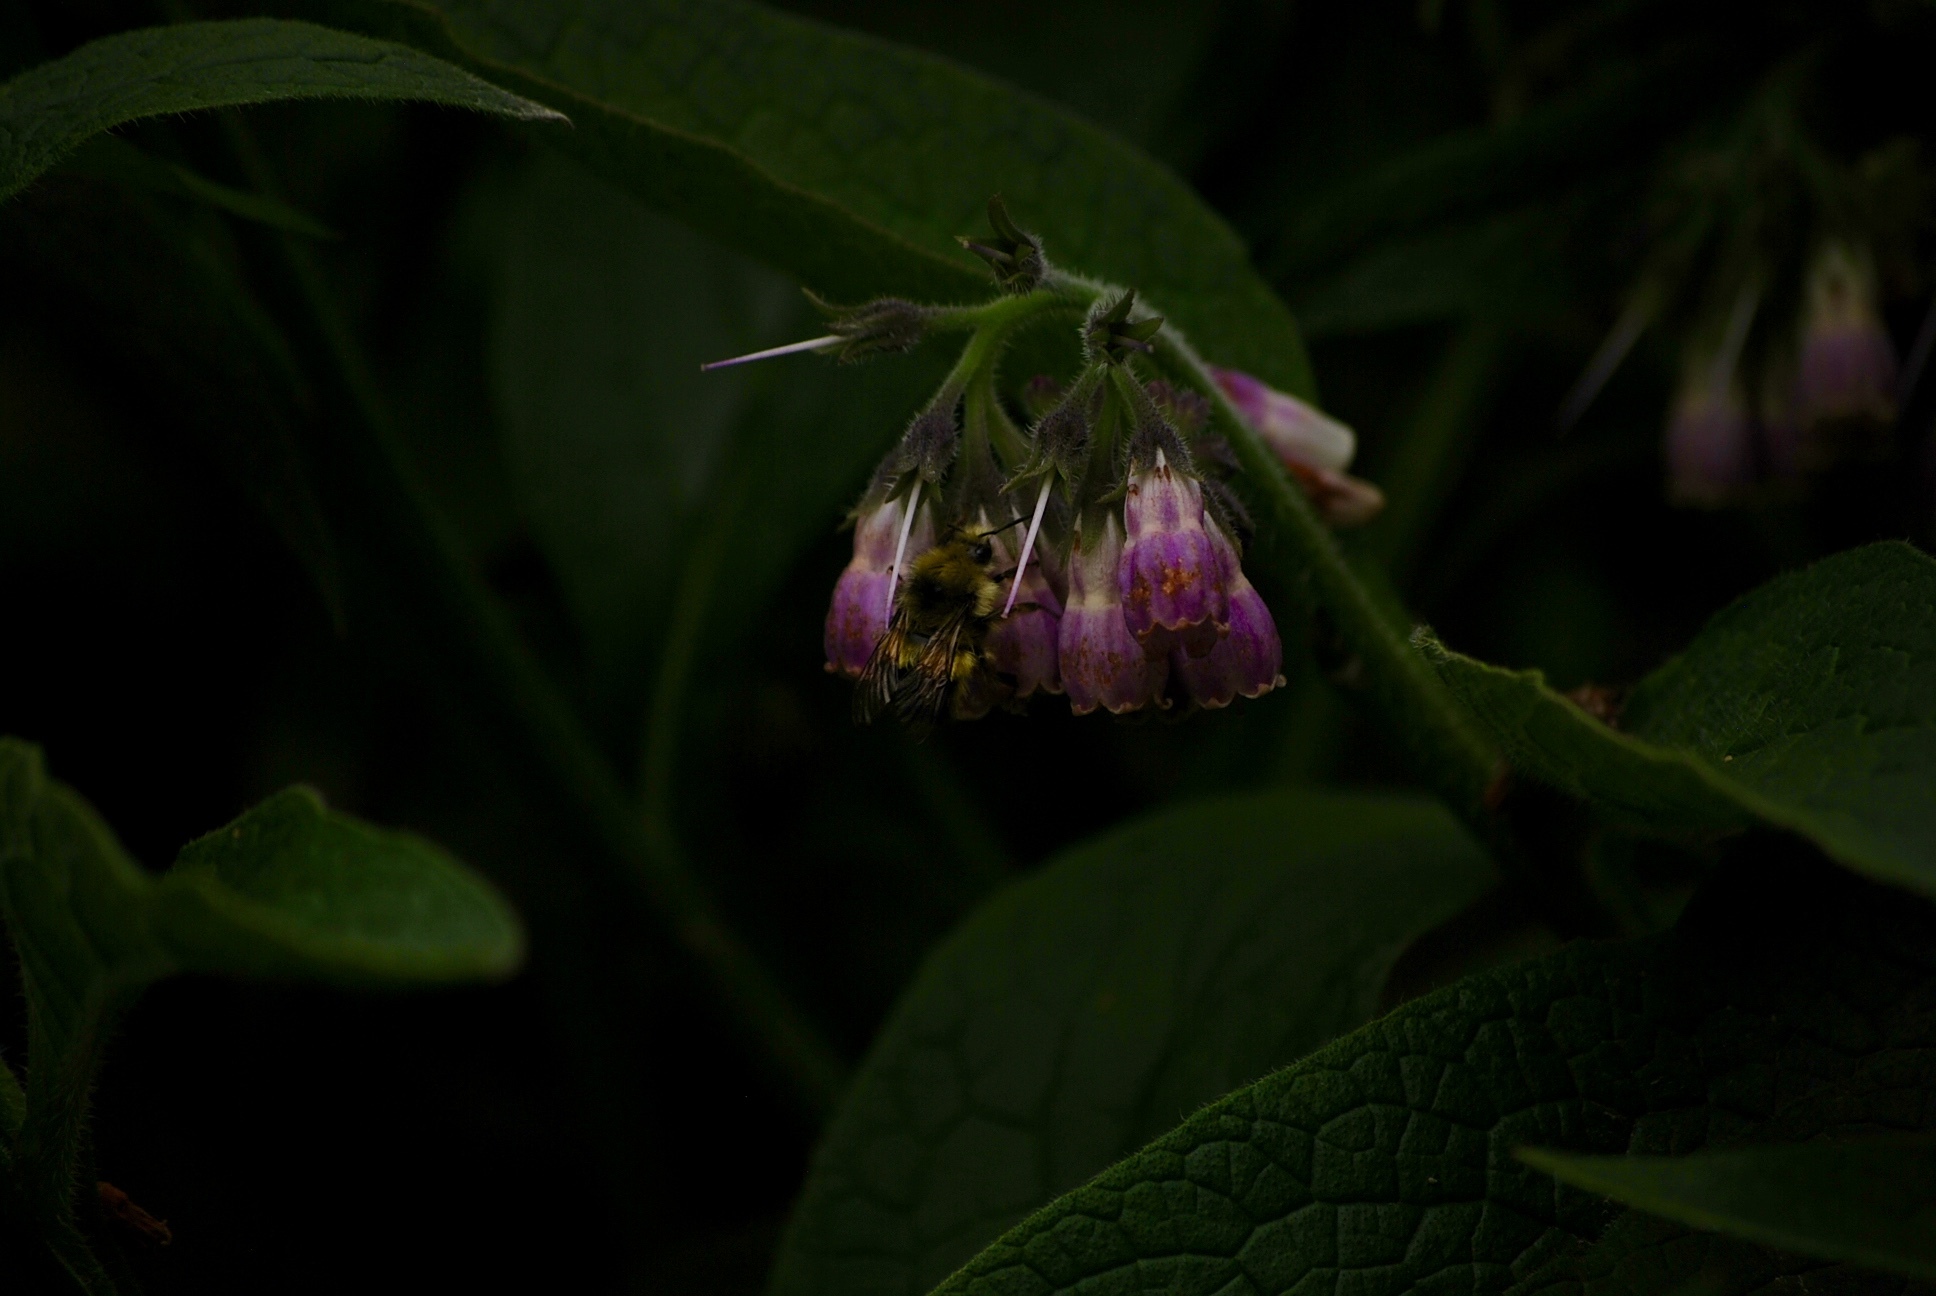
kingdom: Animalia
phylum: Arthropoda
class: Insecta
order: Hymenoptera
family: Apidae
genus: Bombus
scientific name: Bombus flavifrons
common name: Yellow head bumble bee
